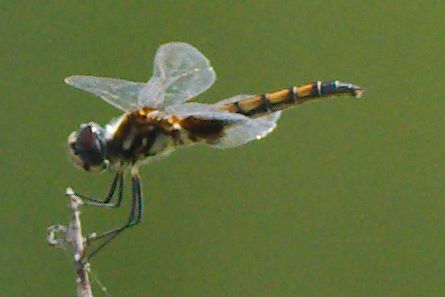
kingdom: Animalia
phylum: Arthropoda
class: Insecta
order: Odonata
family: Libellulidae
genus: Macrodiplax
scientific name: Macrodiplax balteata
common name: Marl pennant
